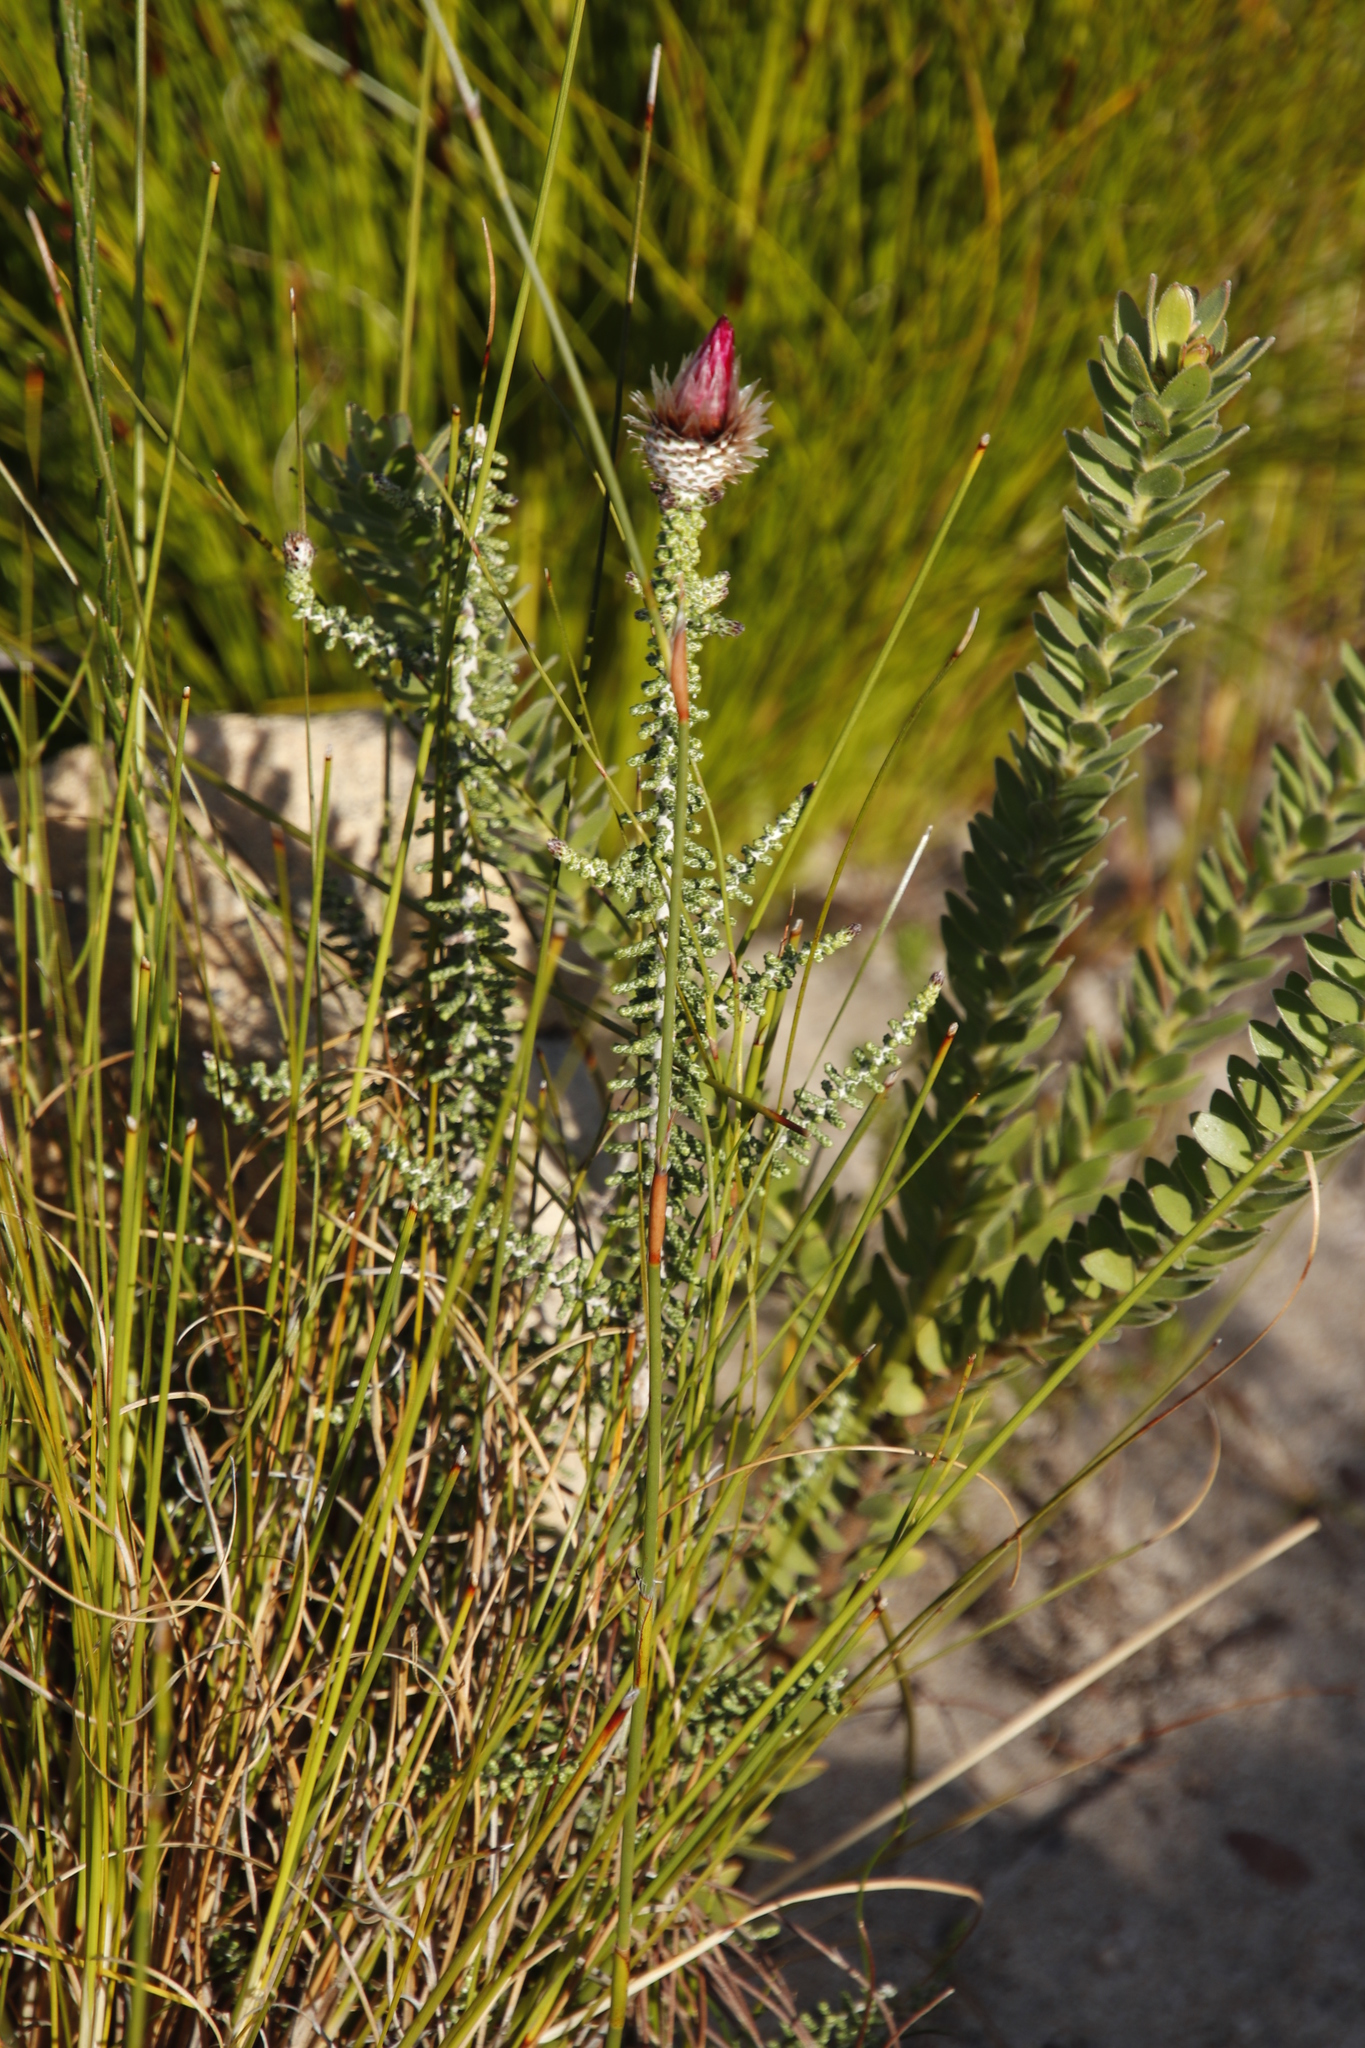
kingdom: Plantae
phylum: Tracheophyta
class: Magnoliopsida
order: Asterales
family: Asteraceae
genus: Phaenocoma
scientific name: Phaenocoma prolifera
